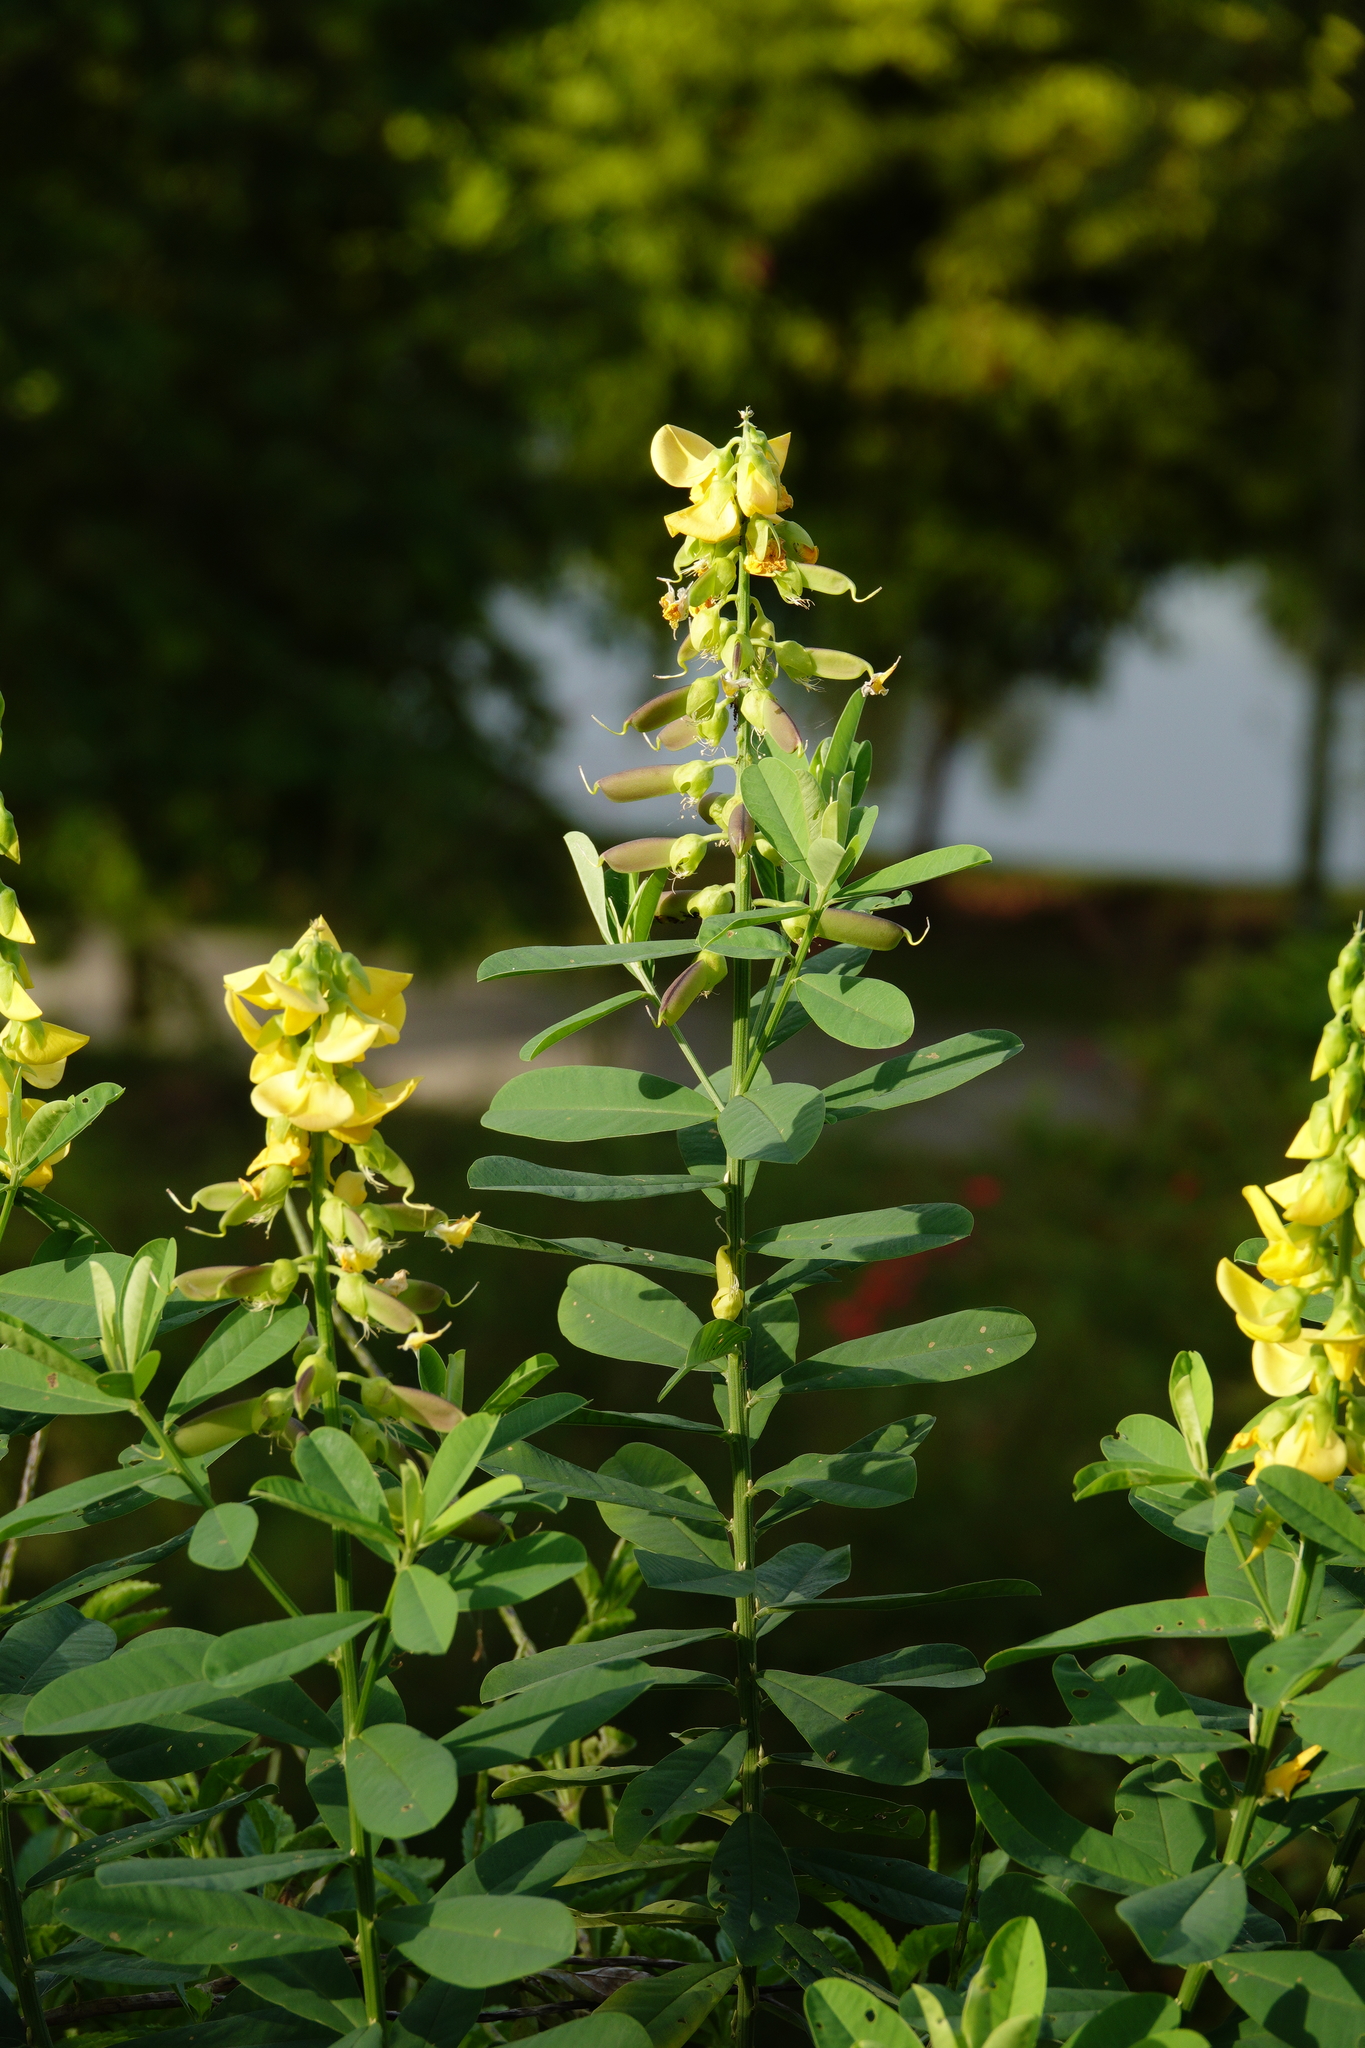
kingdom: Plantae
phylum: Tracheophyta
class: Magnoliopsida
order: Fabales
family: Fabaceae
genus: Crotalaria
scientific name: Crotalaria retusa
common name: Rattleweed
